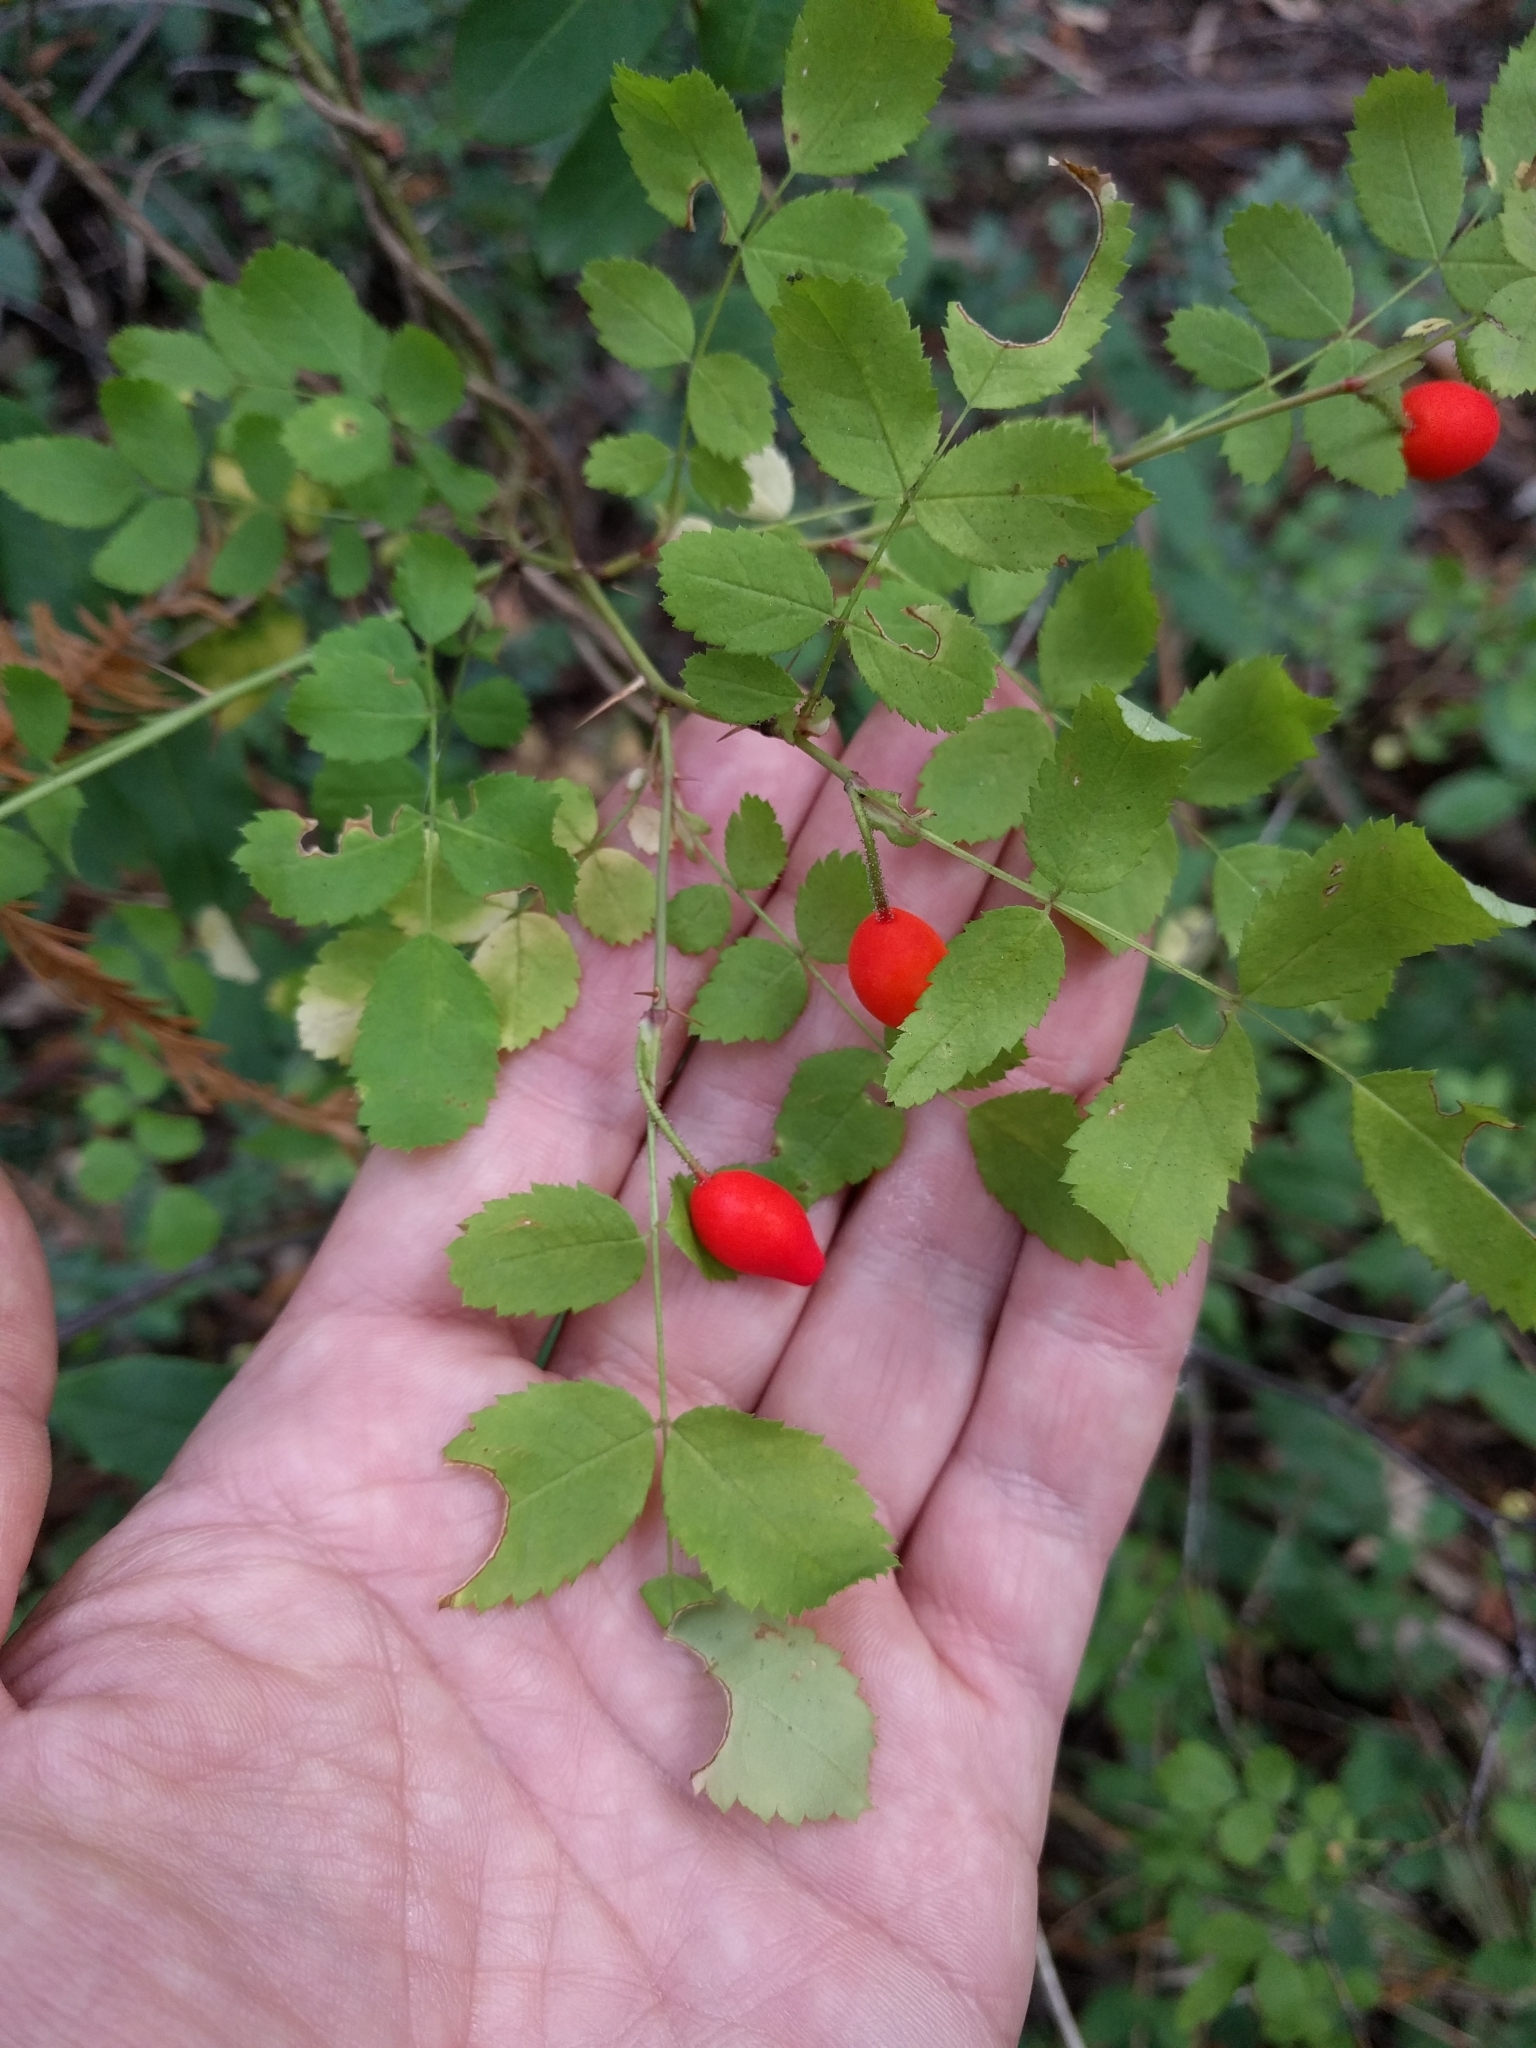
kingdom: Plantae
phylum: Tracheophyta
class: Magnoliopsida
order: Rosales
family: Rosaceae
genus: Rosa
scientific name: Rosa gymnocarpa
